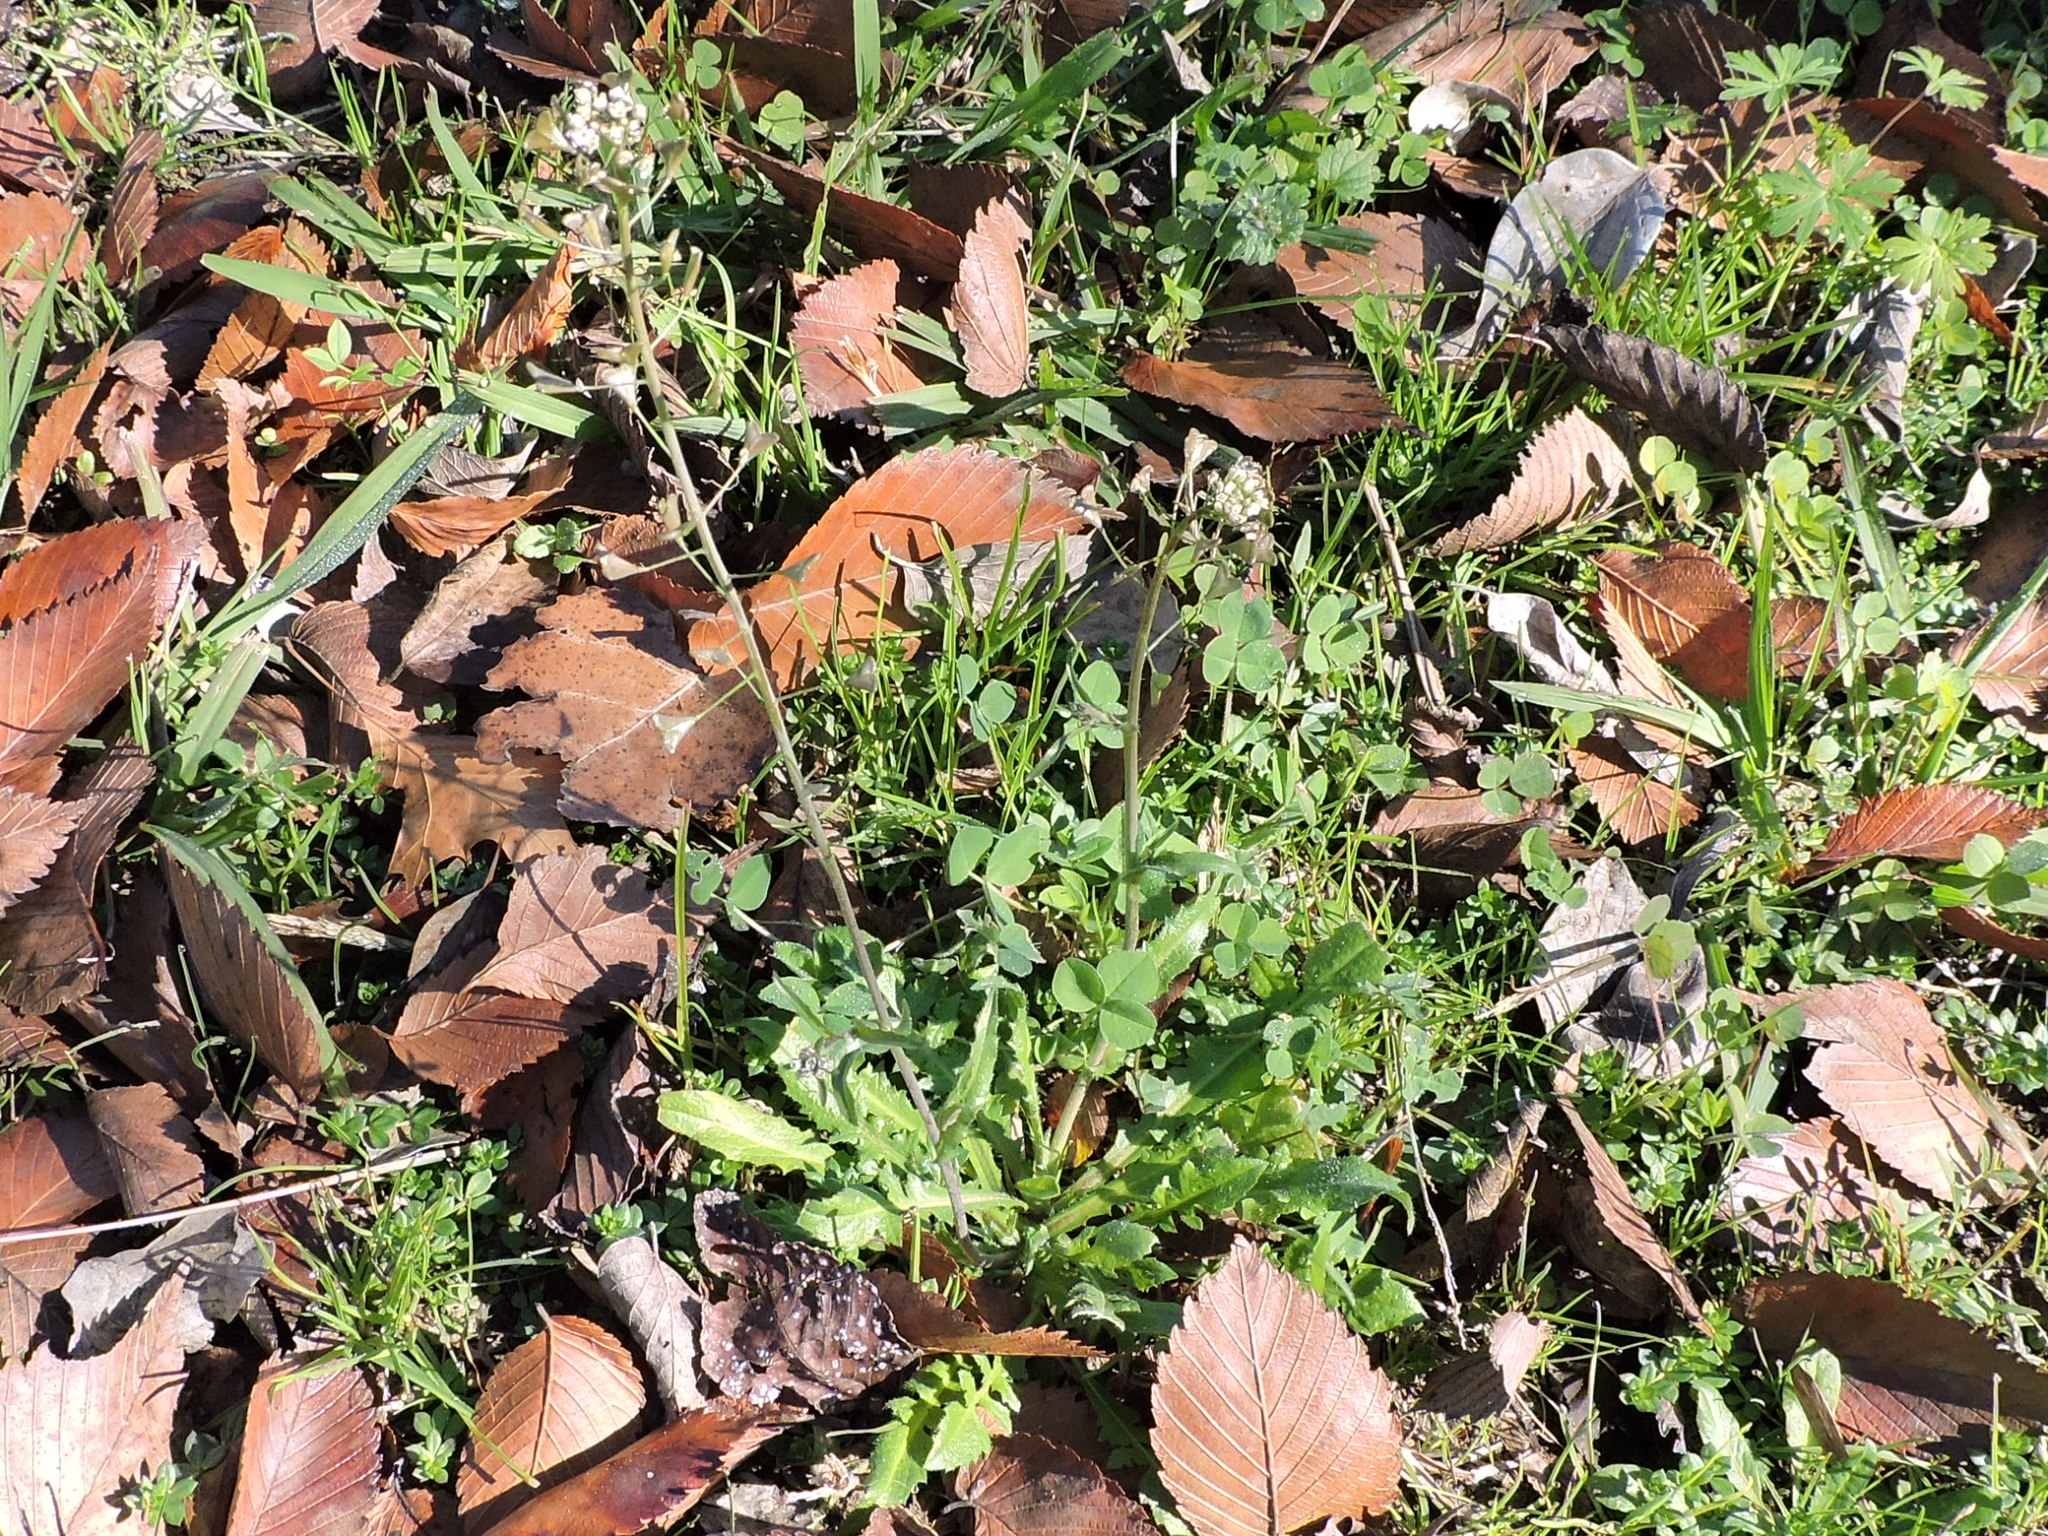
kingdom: Plantae
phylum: Tracheophyta
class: Magnoliopsida
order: Brassicales
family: Brassicaceae
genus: Capsella
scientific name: Capsella bursa-pastoris
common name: Shepherd's purse
